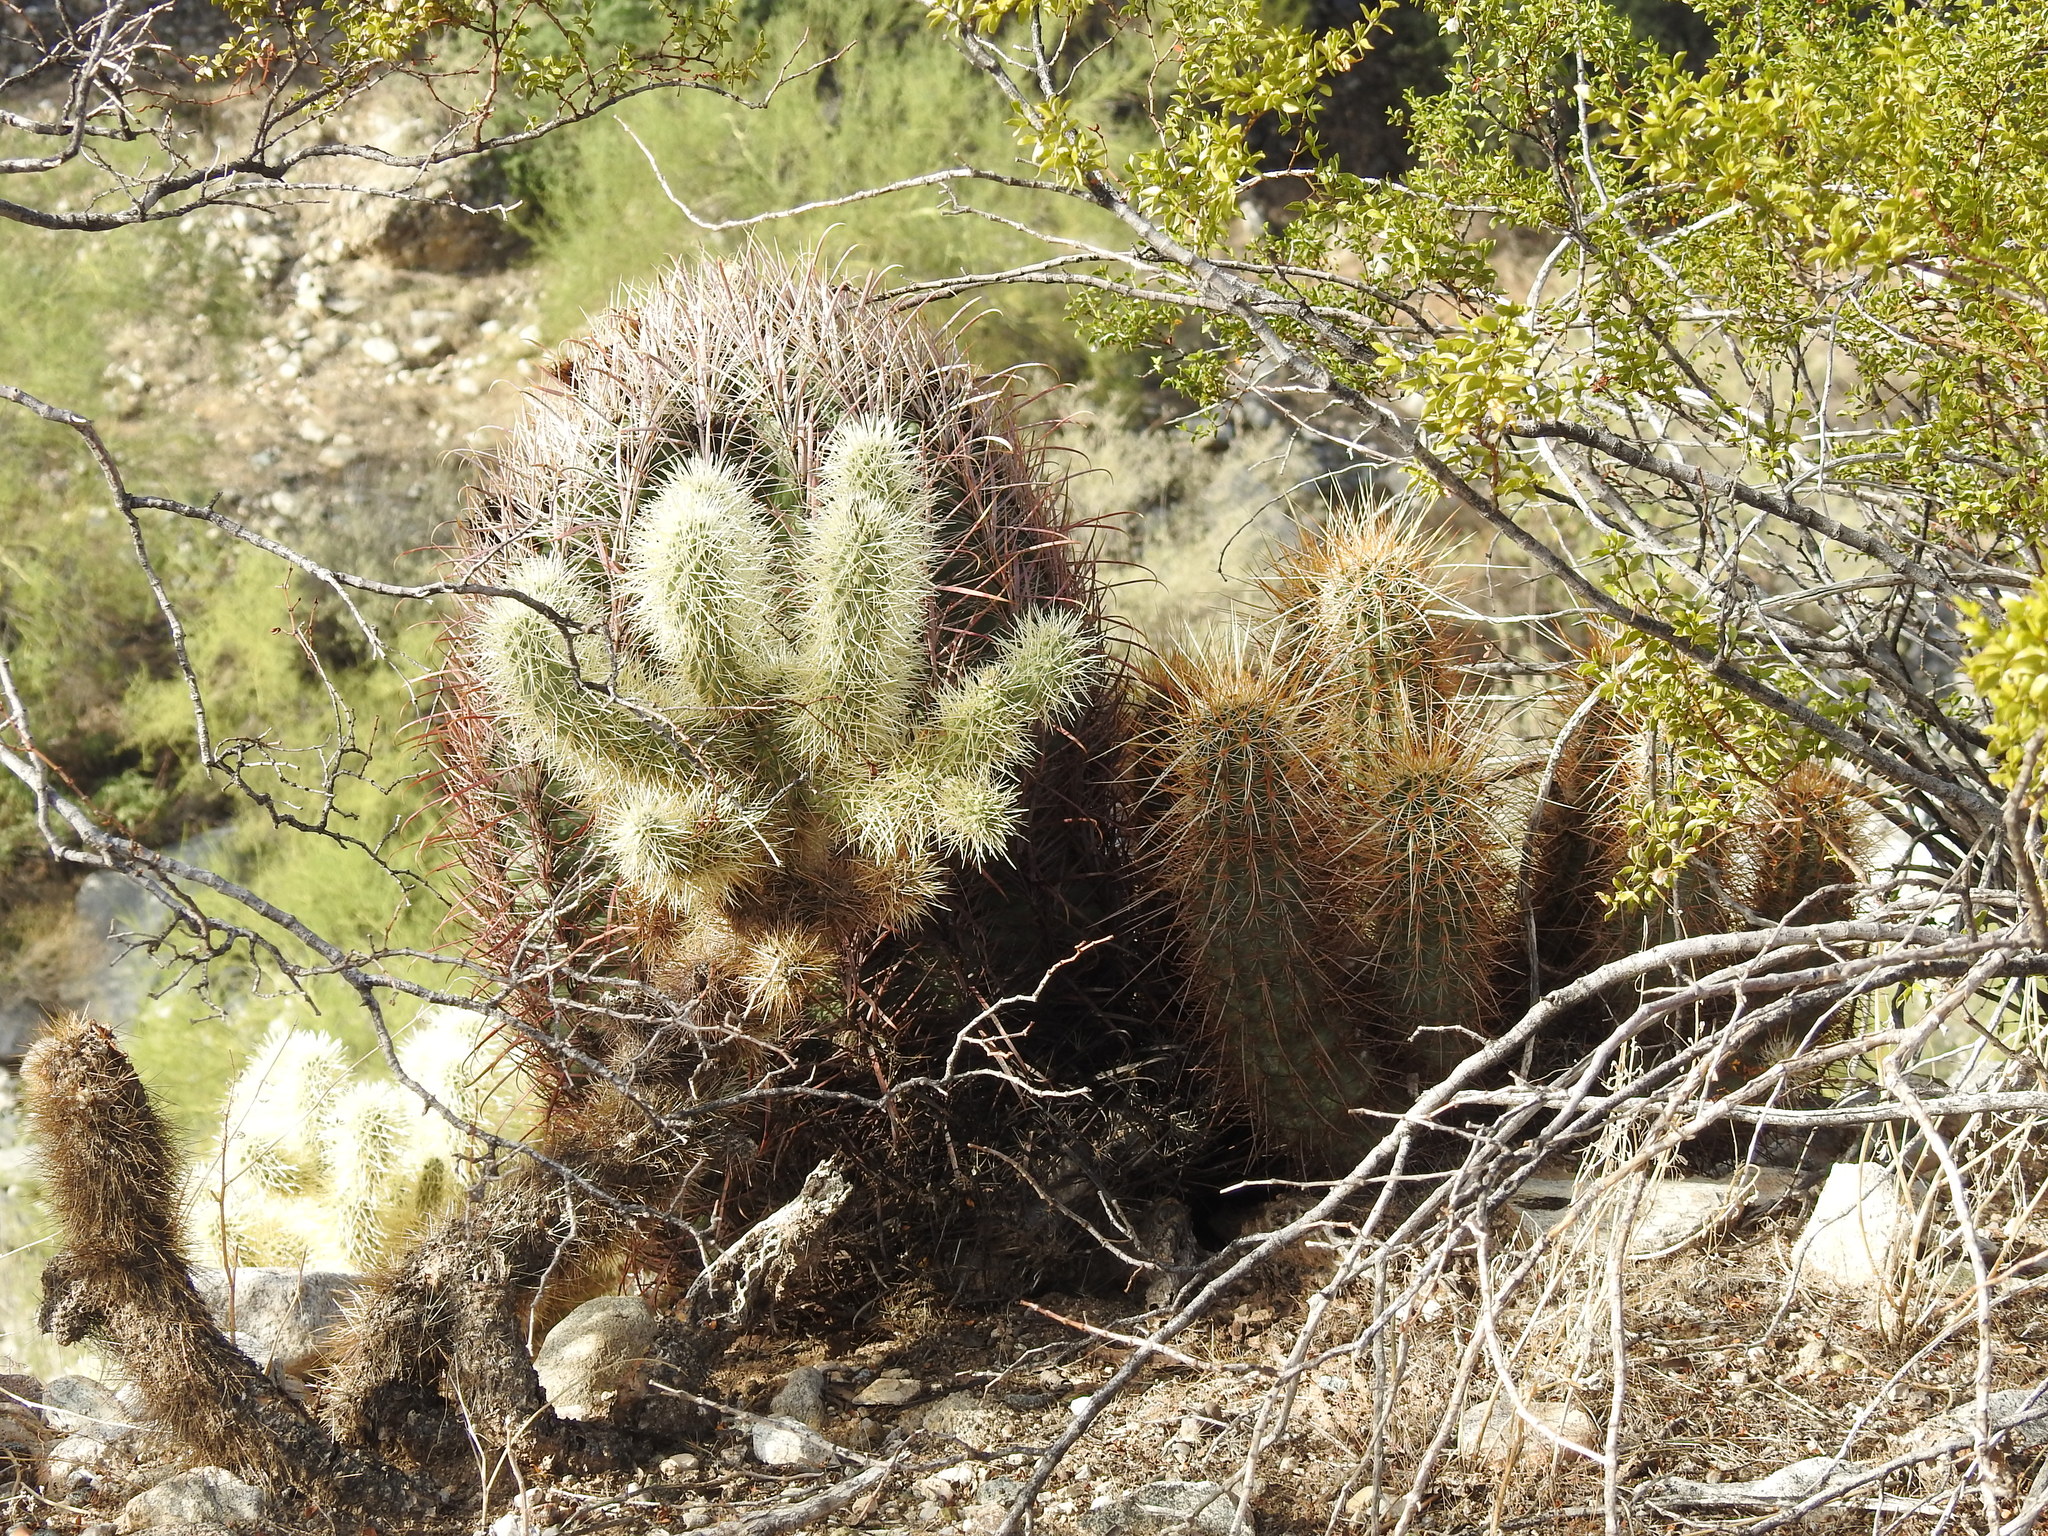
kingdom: Plantae
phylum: Tracheophyta
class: Magnoliopsida
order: Caryophyllales
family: Cactaceae
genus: Cylindropuntia
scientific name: Cylindropuntia fosbergii
